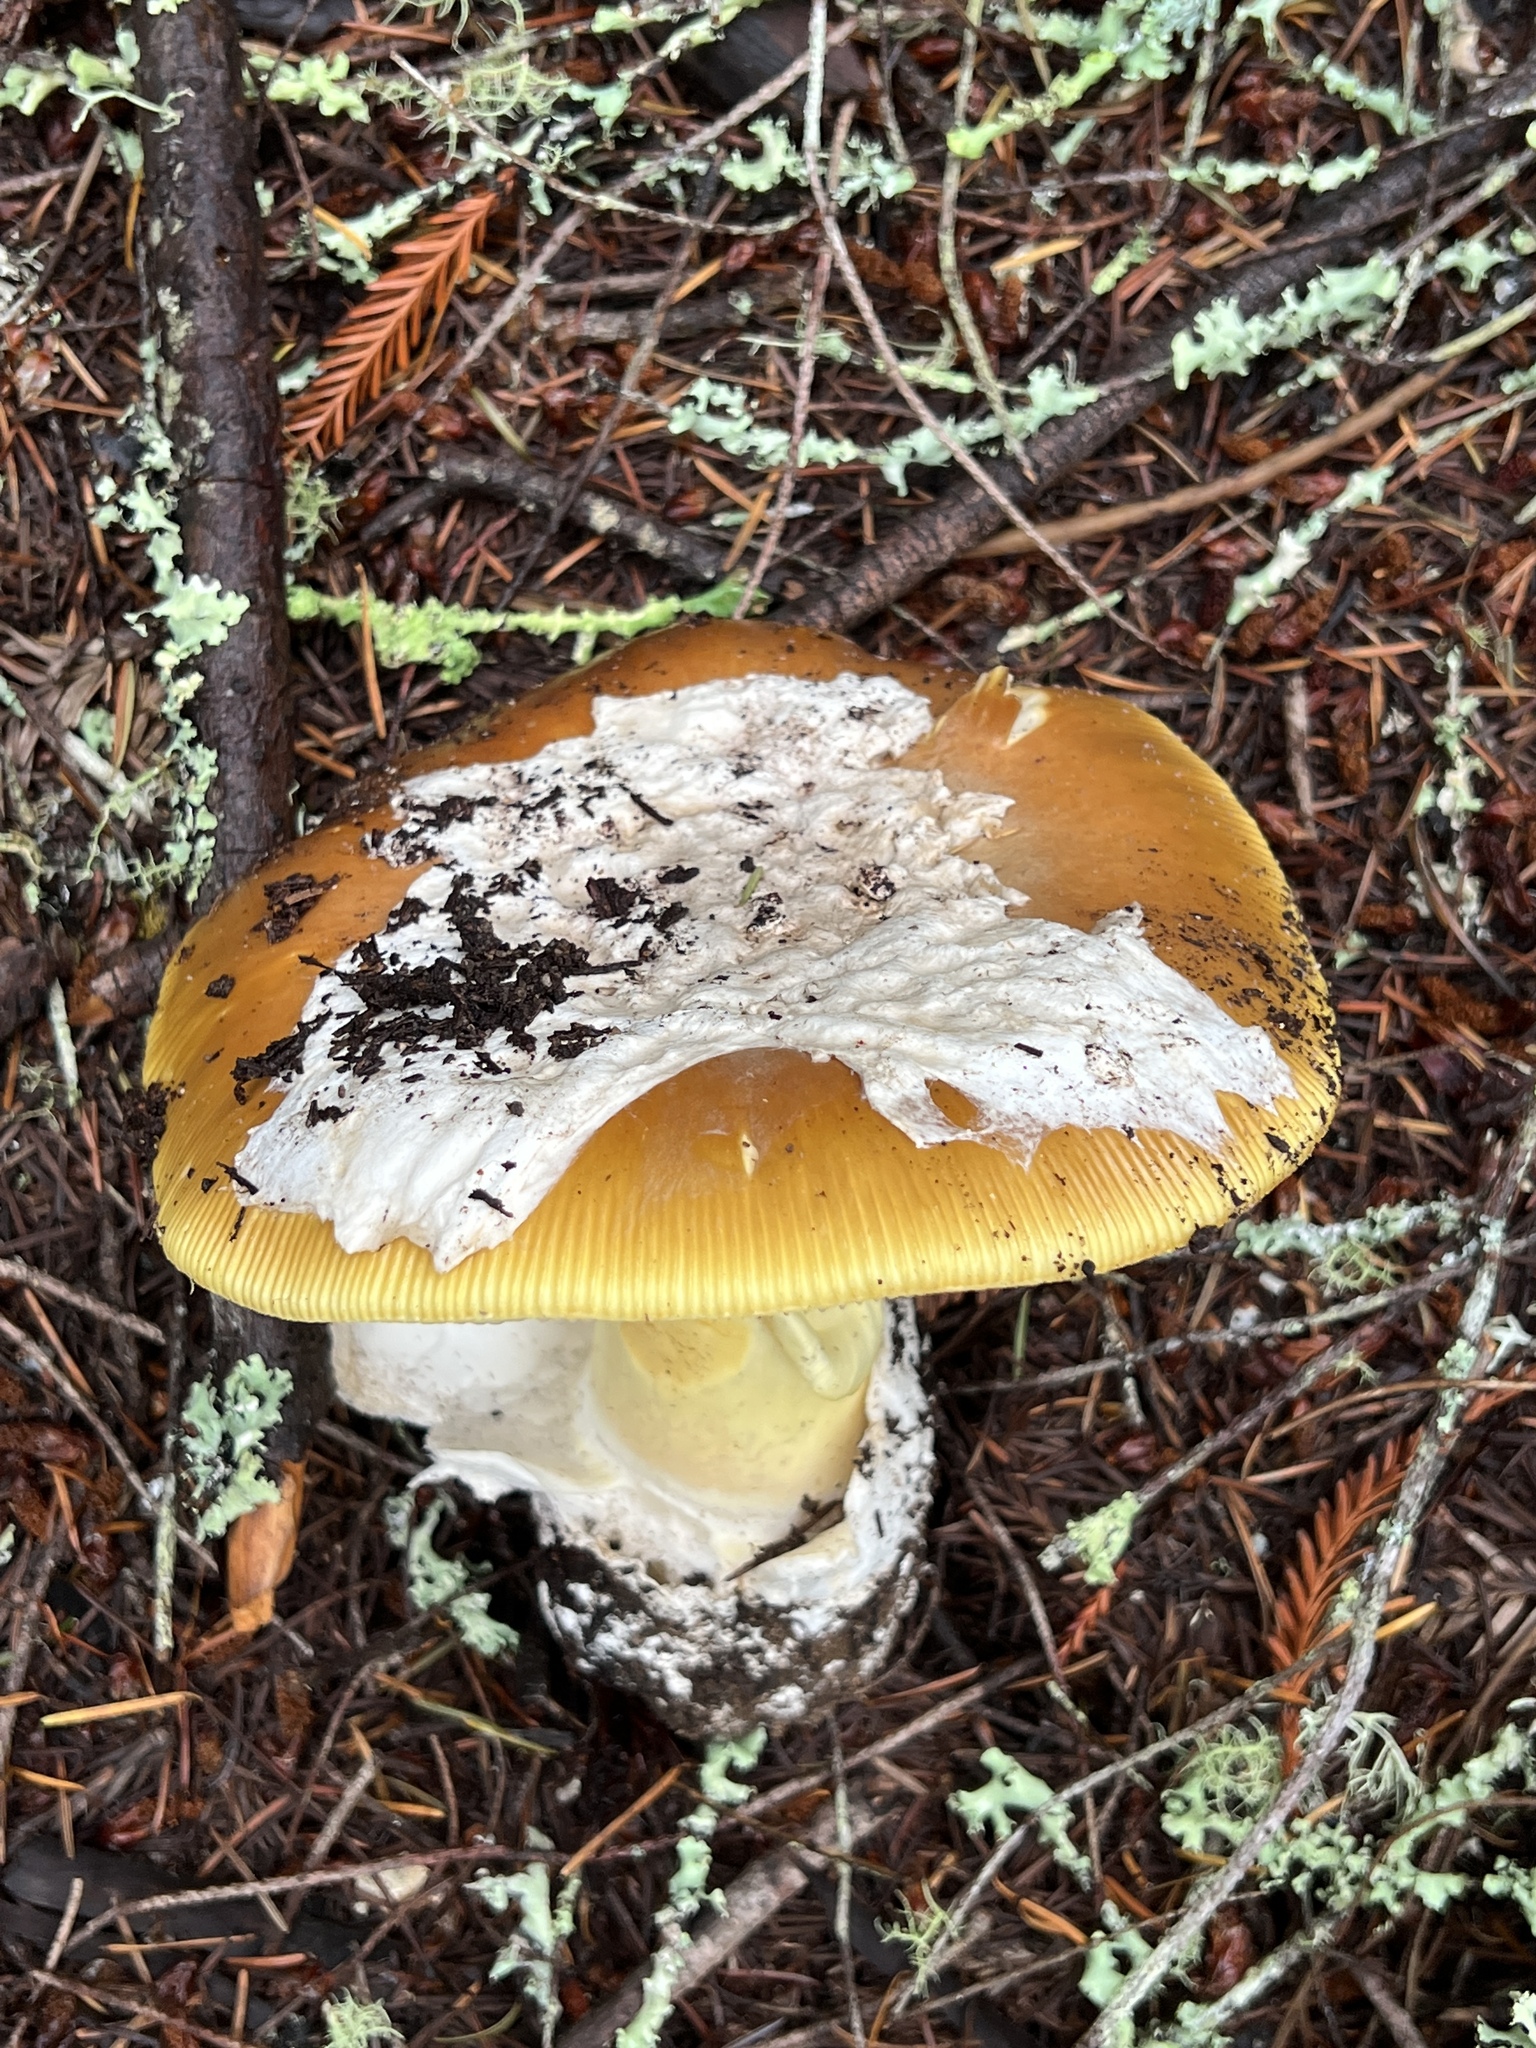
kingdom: Fungi
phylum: Basidiomycota
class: Agaricomycetes
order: Agaricales
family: Amanitaceae
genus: Amanita
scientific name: Amanita calyptroderma
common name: Coccora
